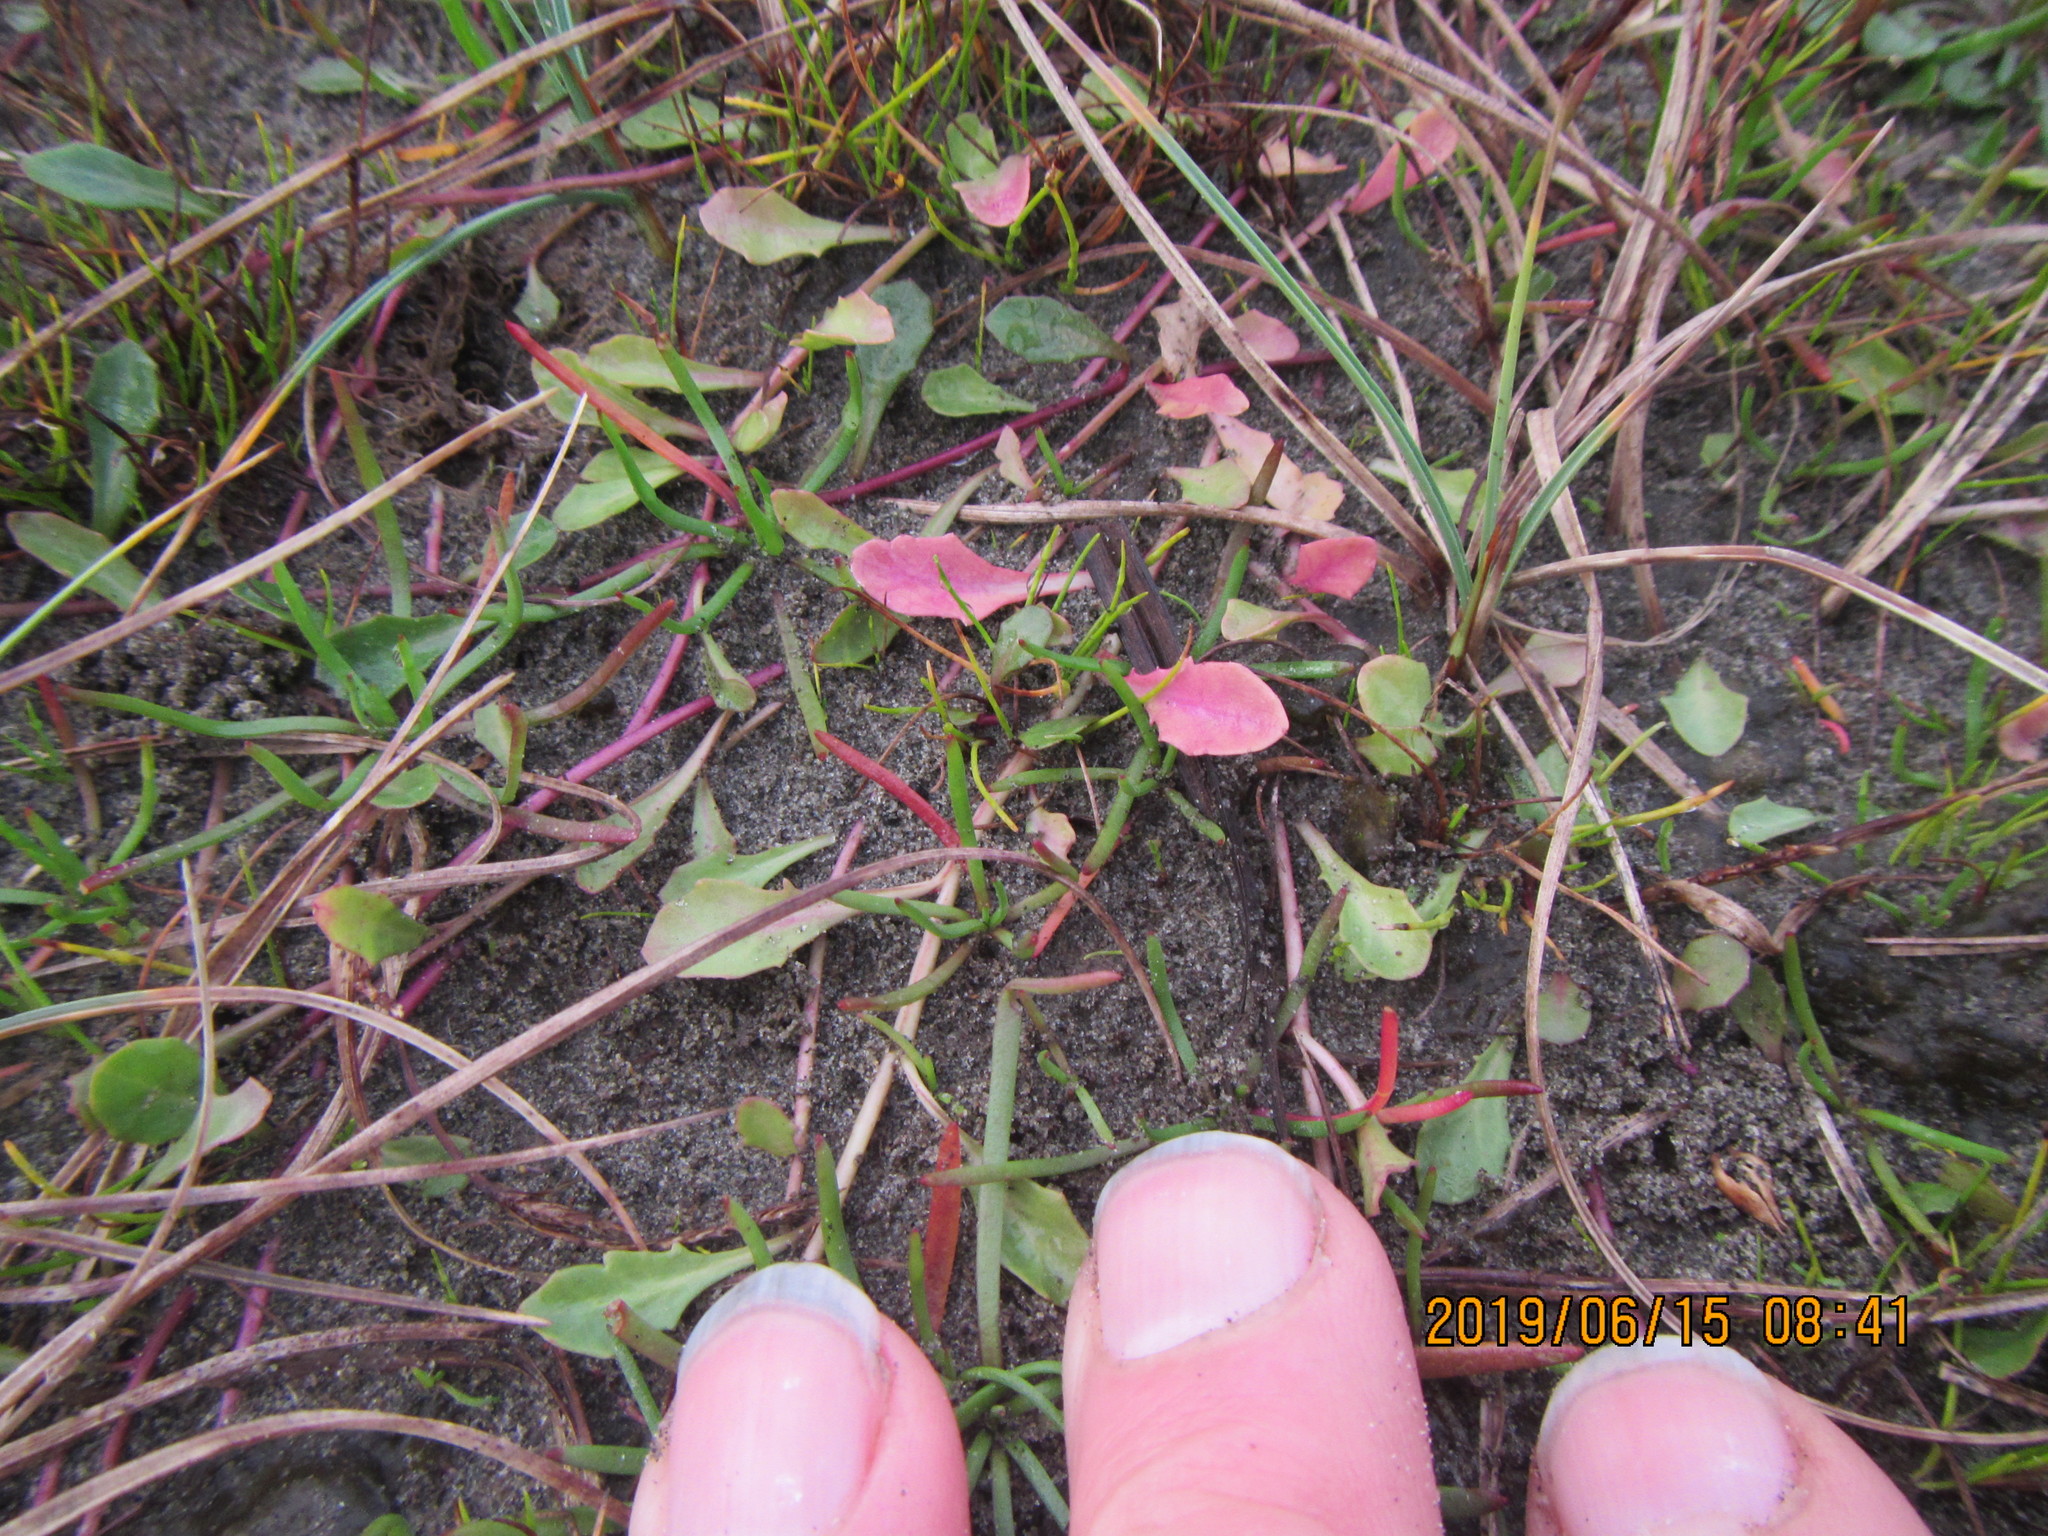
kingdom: Plantae
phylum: Tracheophyta
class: Magnoliopsida
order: Asterales
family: Campanulaceae
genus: Lobelia
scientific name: Lobelia anceps
